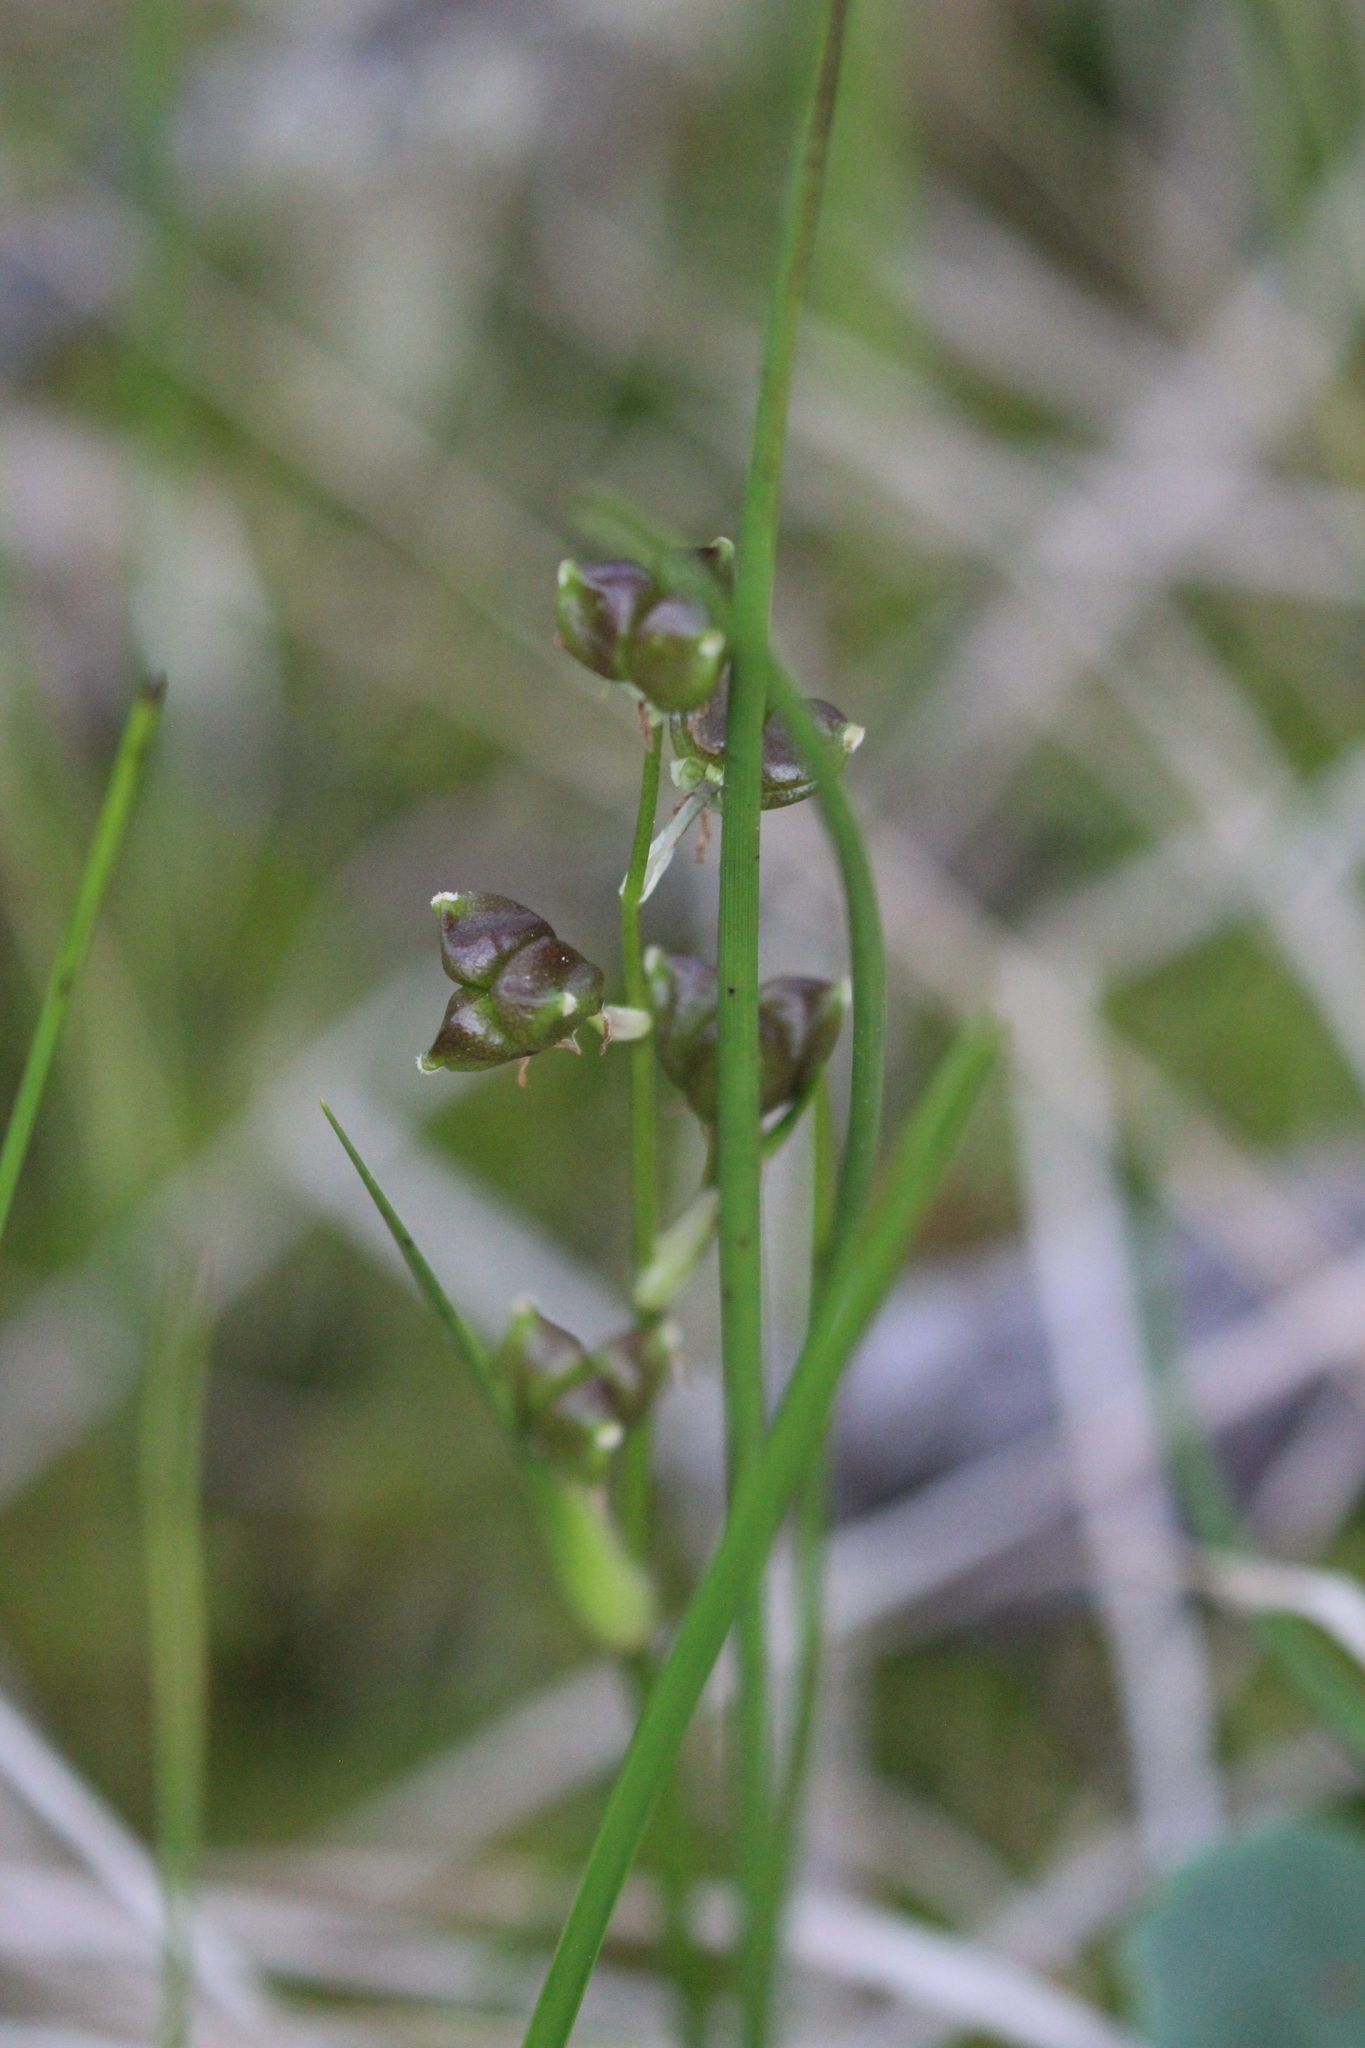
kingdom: Plantae
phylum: Tracheophyta
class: Liliopsida
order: Alismatales
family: Scheuchzeriaceae
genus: Scheuchzeria
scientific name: Scheuchzeria palustris
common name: Rannoch-rush
